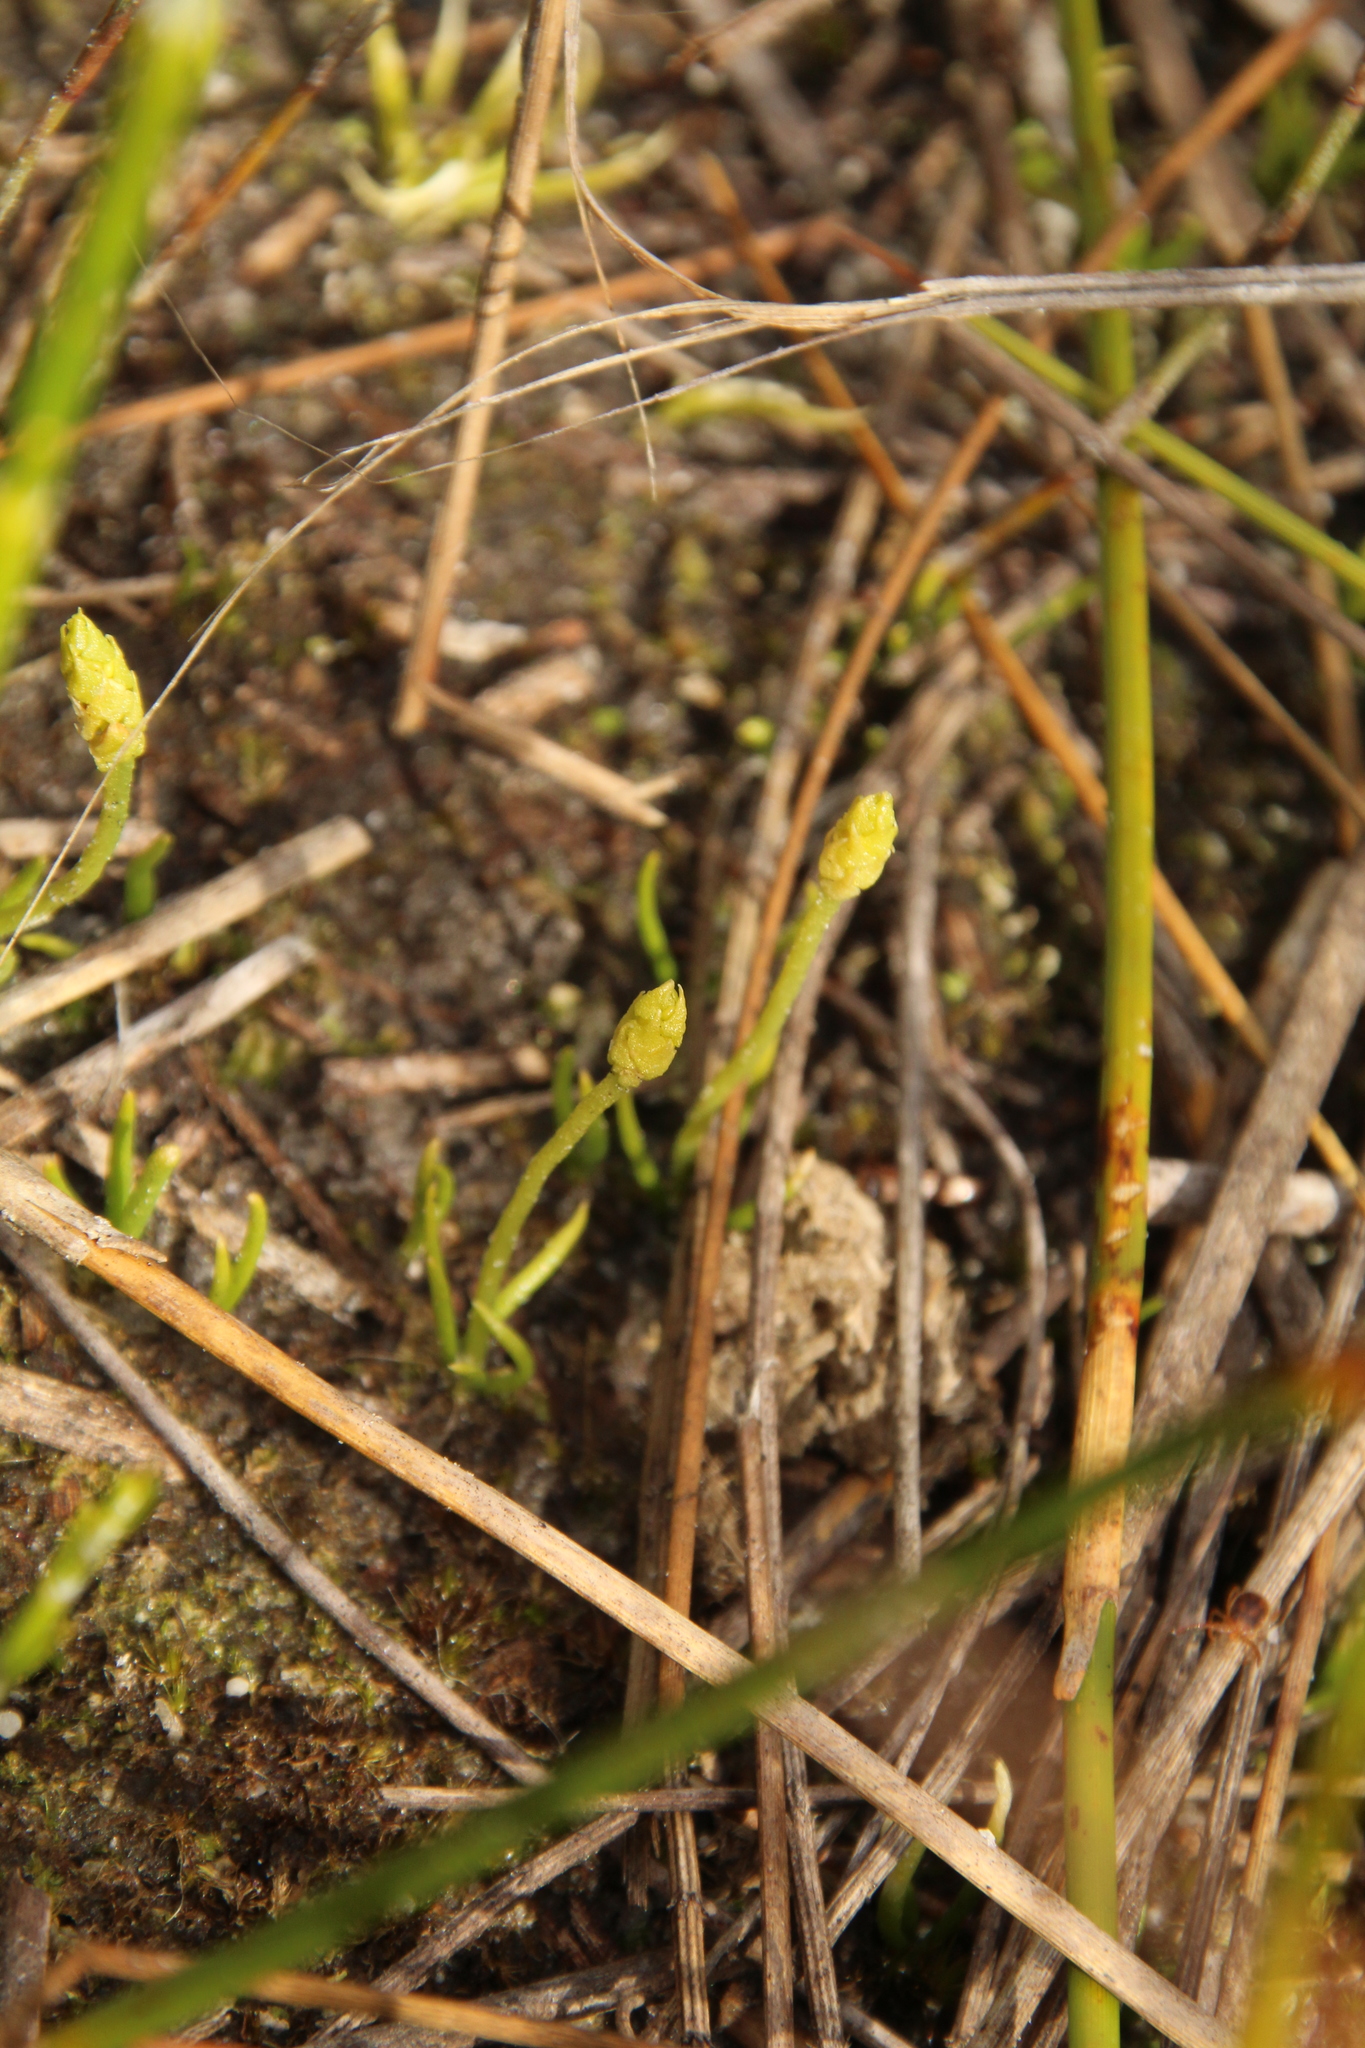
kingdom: Plantae
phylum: Tracheophyta
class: Lycopodiopsida
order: Lycopodiales
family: Lycopodiaceae
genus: Phylloglossum
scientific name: Phylloglossum drummondii
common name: Pigmy-club-moss
